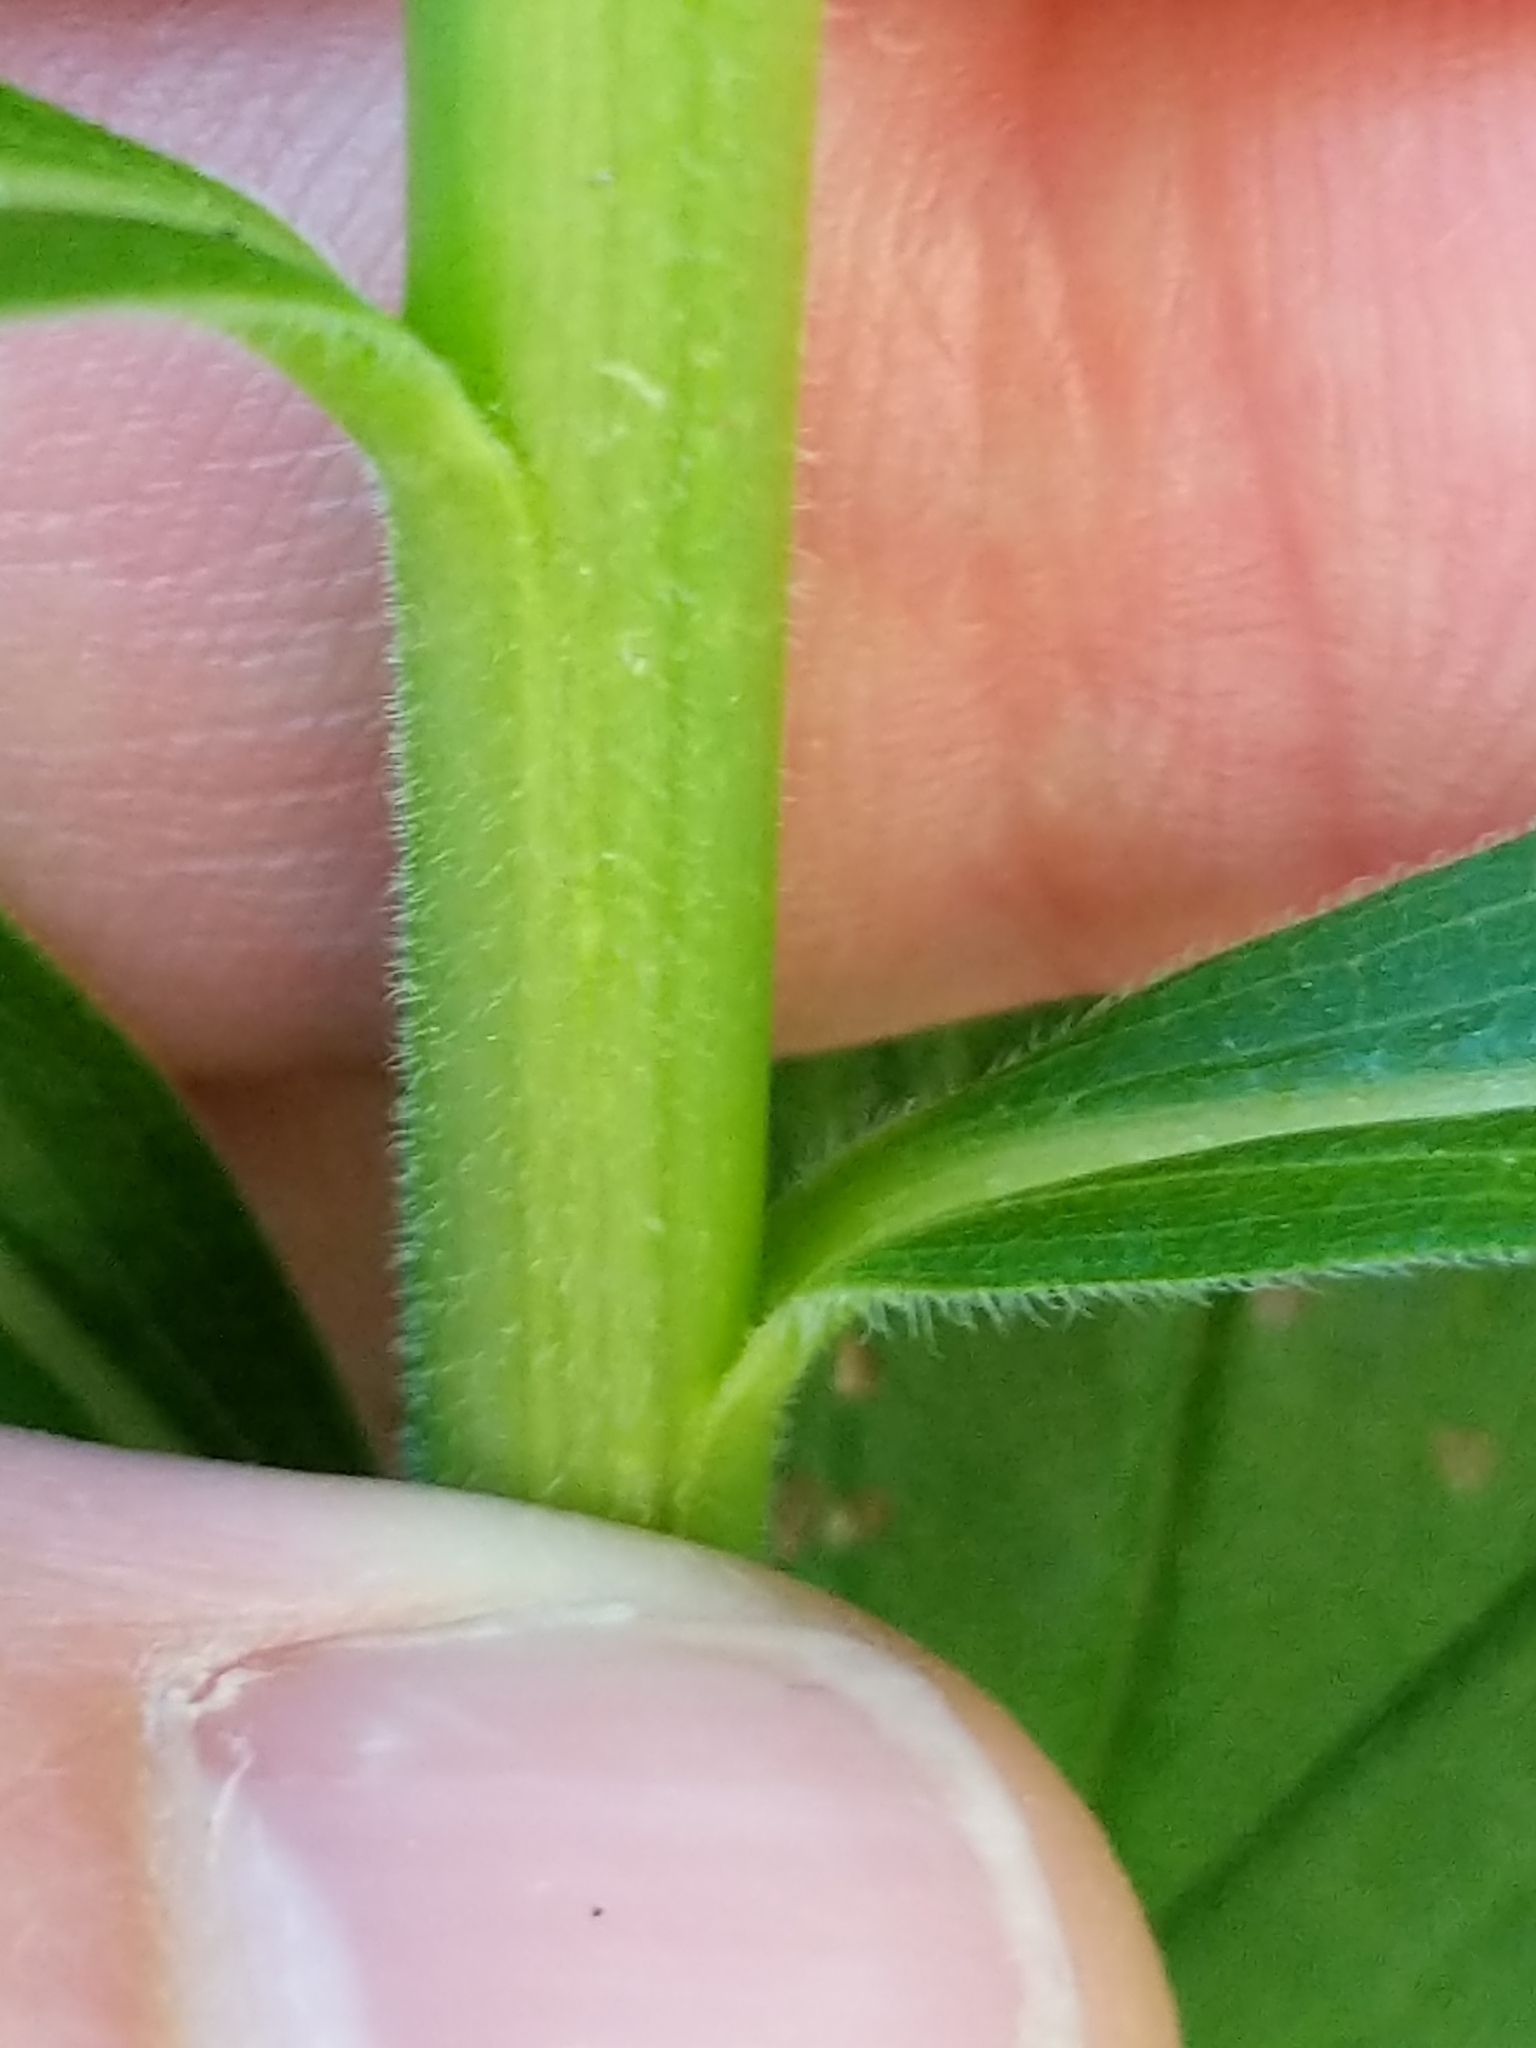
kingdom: Plantae
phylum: Tracheophyta
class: Magnoliopsida
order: Asterales
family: Asteraceae
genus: Solidago
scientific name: Solidago canadensis
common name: Canada goldenrod
